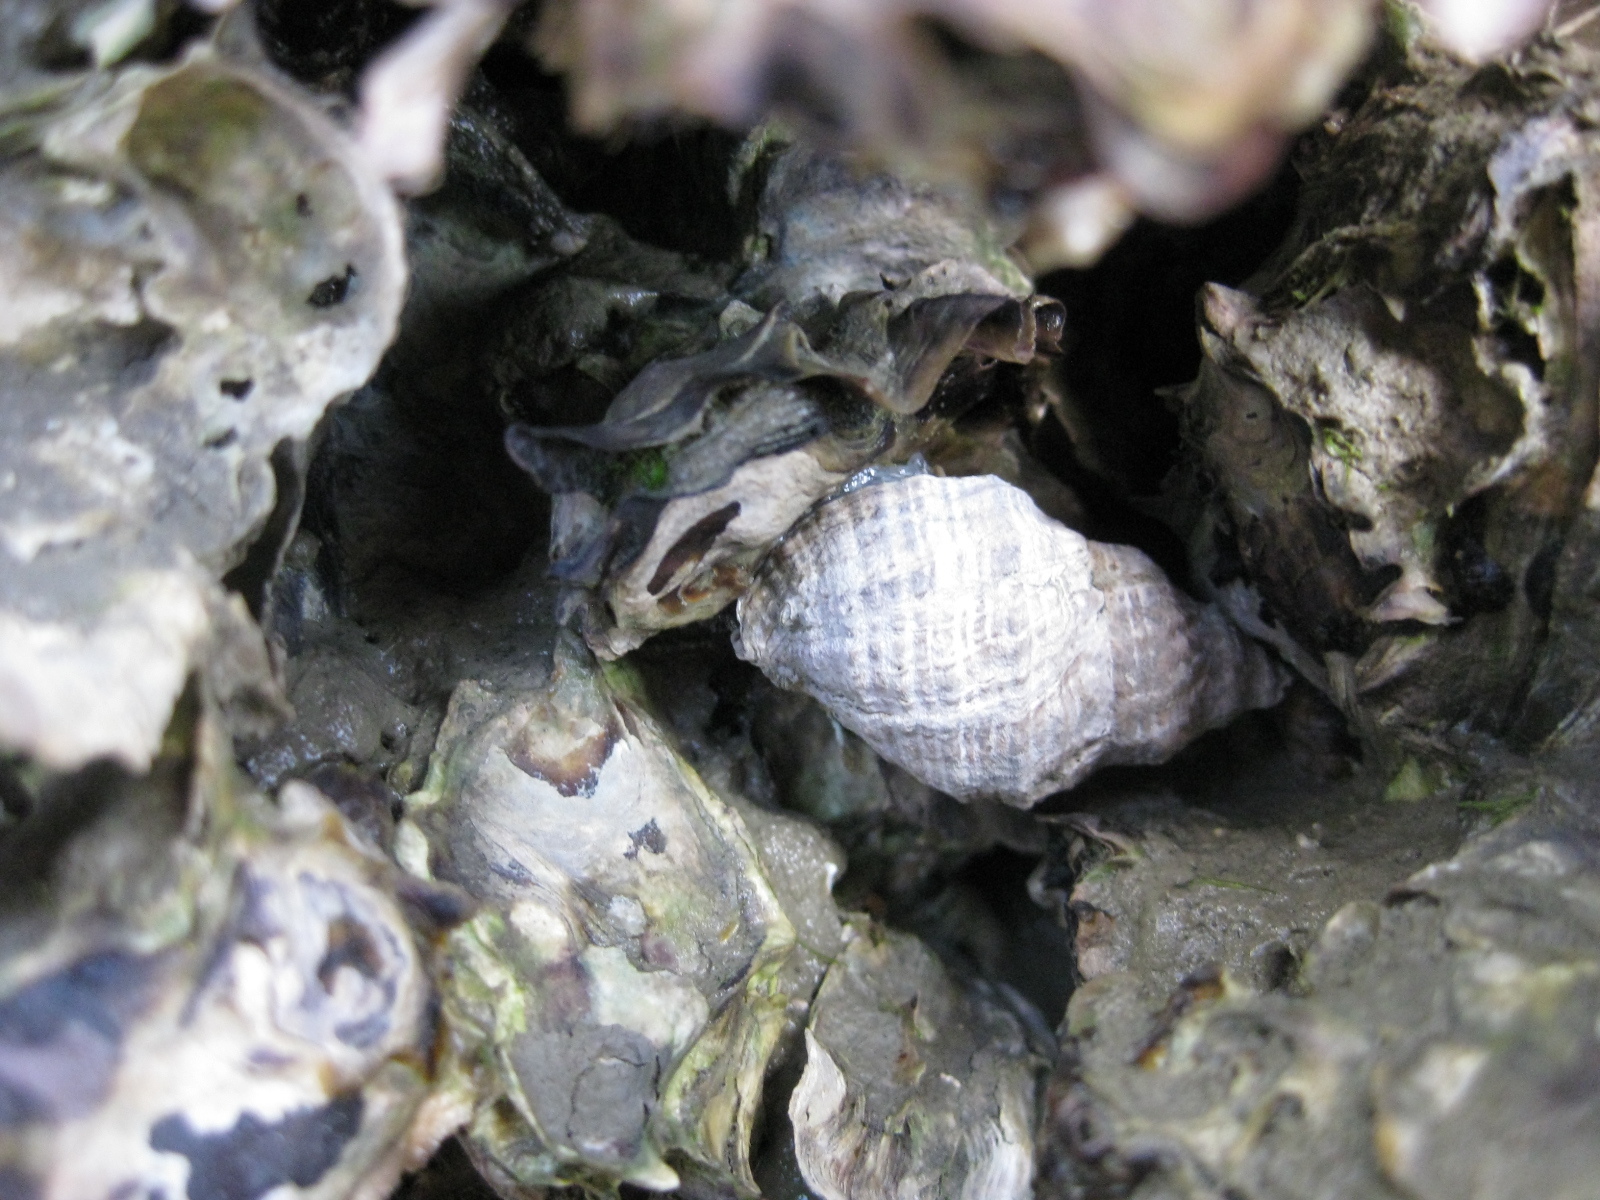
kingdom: Animalia
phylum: Mollusca
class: Gastropoda
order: Neogastropoda
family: Muricidae
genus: Haustrum
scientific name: Haustrum albomarginatum
